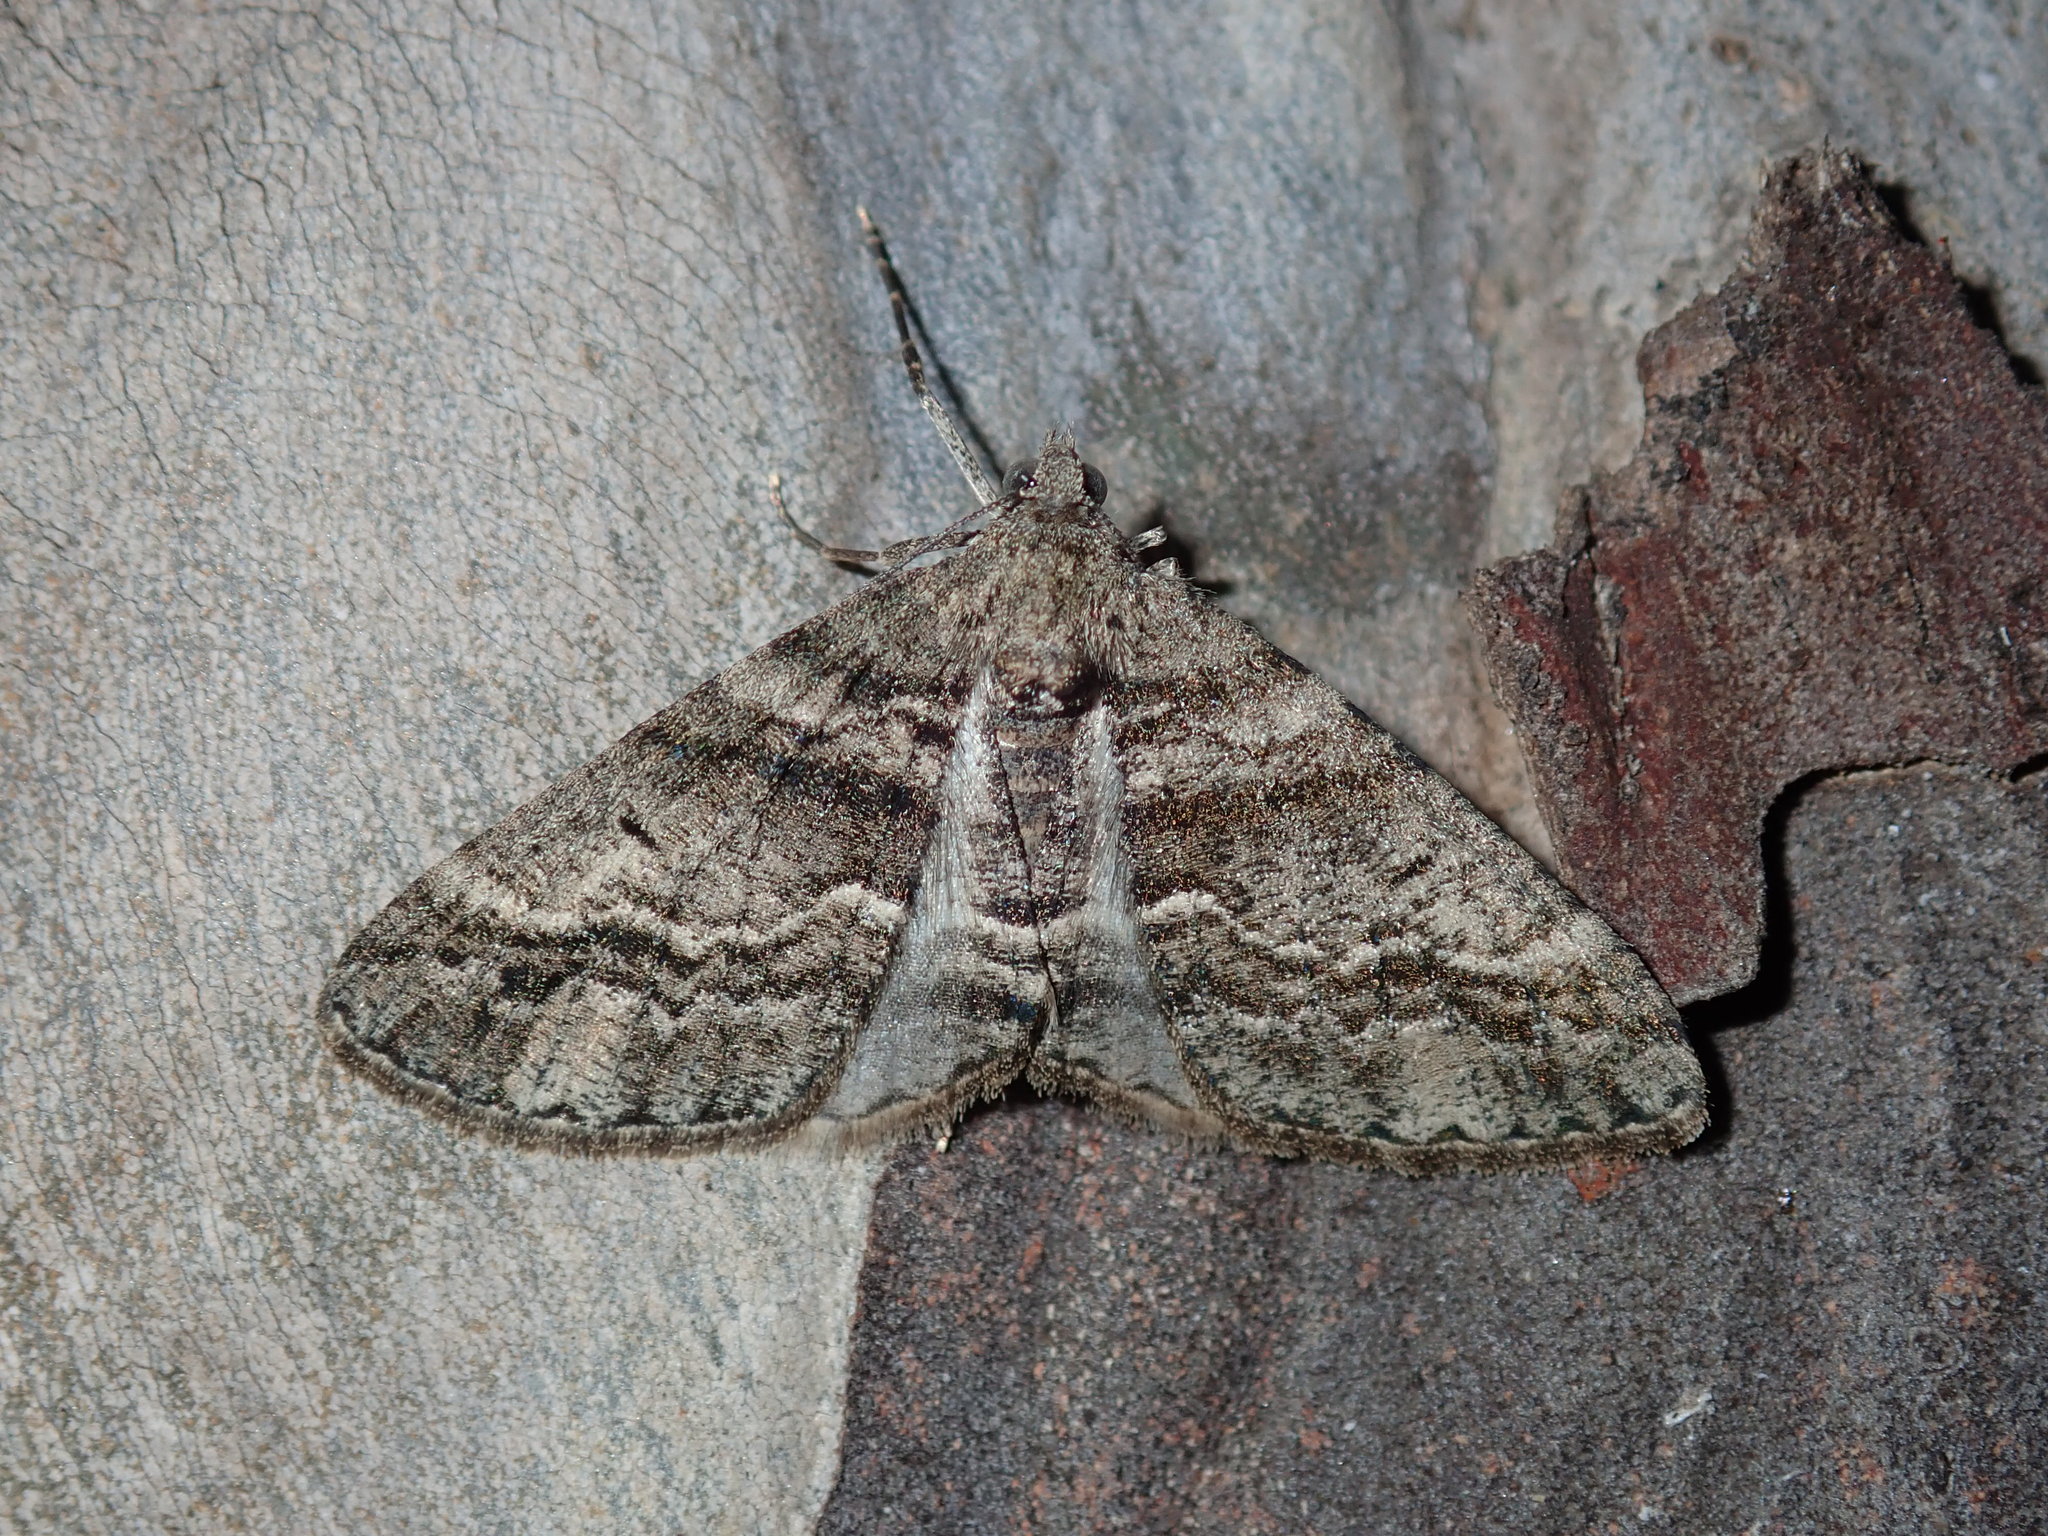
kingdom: Animalia
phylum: Arthropoda
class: Insecta
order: Lepidoptera
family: Geometridae
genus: Lipogya
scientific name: Lipogya eutheta
